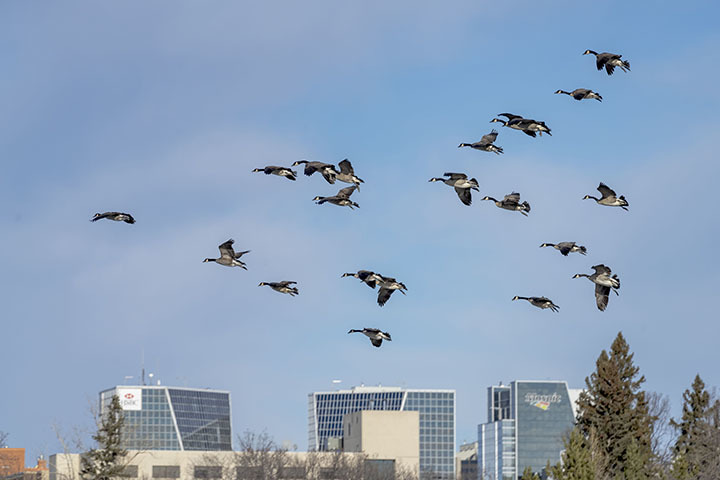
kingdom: Animalia
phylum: Chordata
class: Aves
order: Anseriformes
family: Anatidae
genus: Branta
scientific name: Branta canadensis
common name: Canada goose
